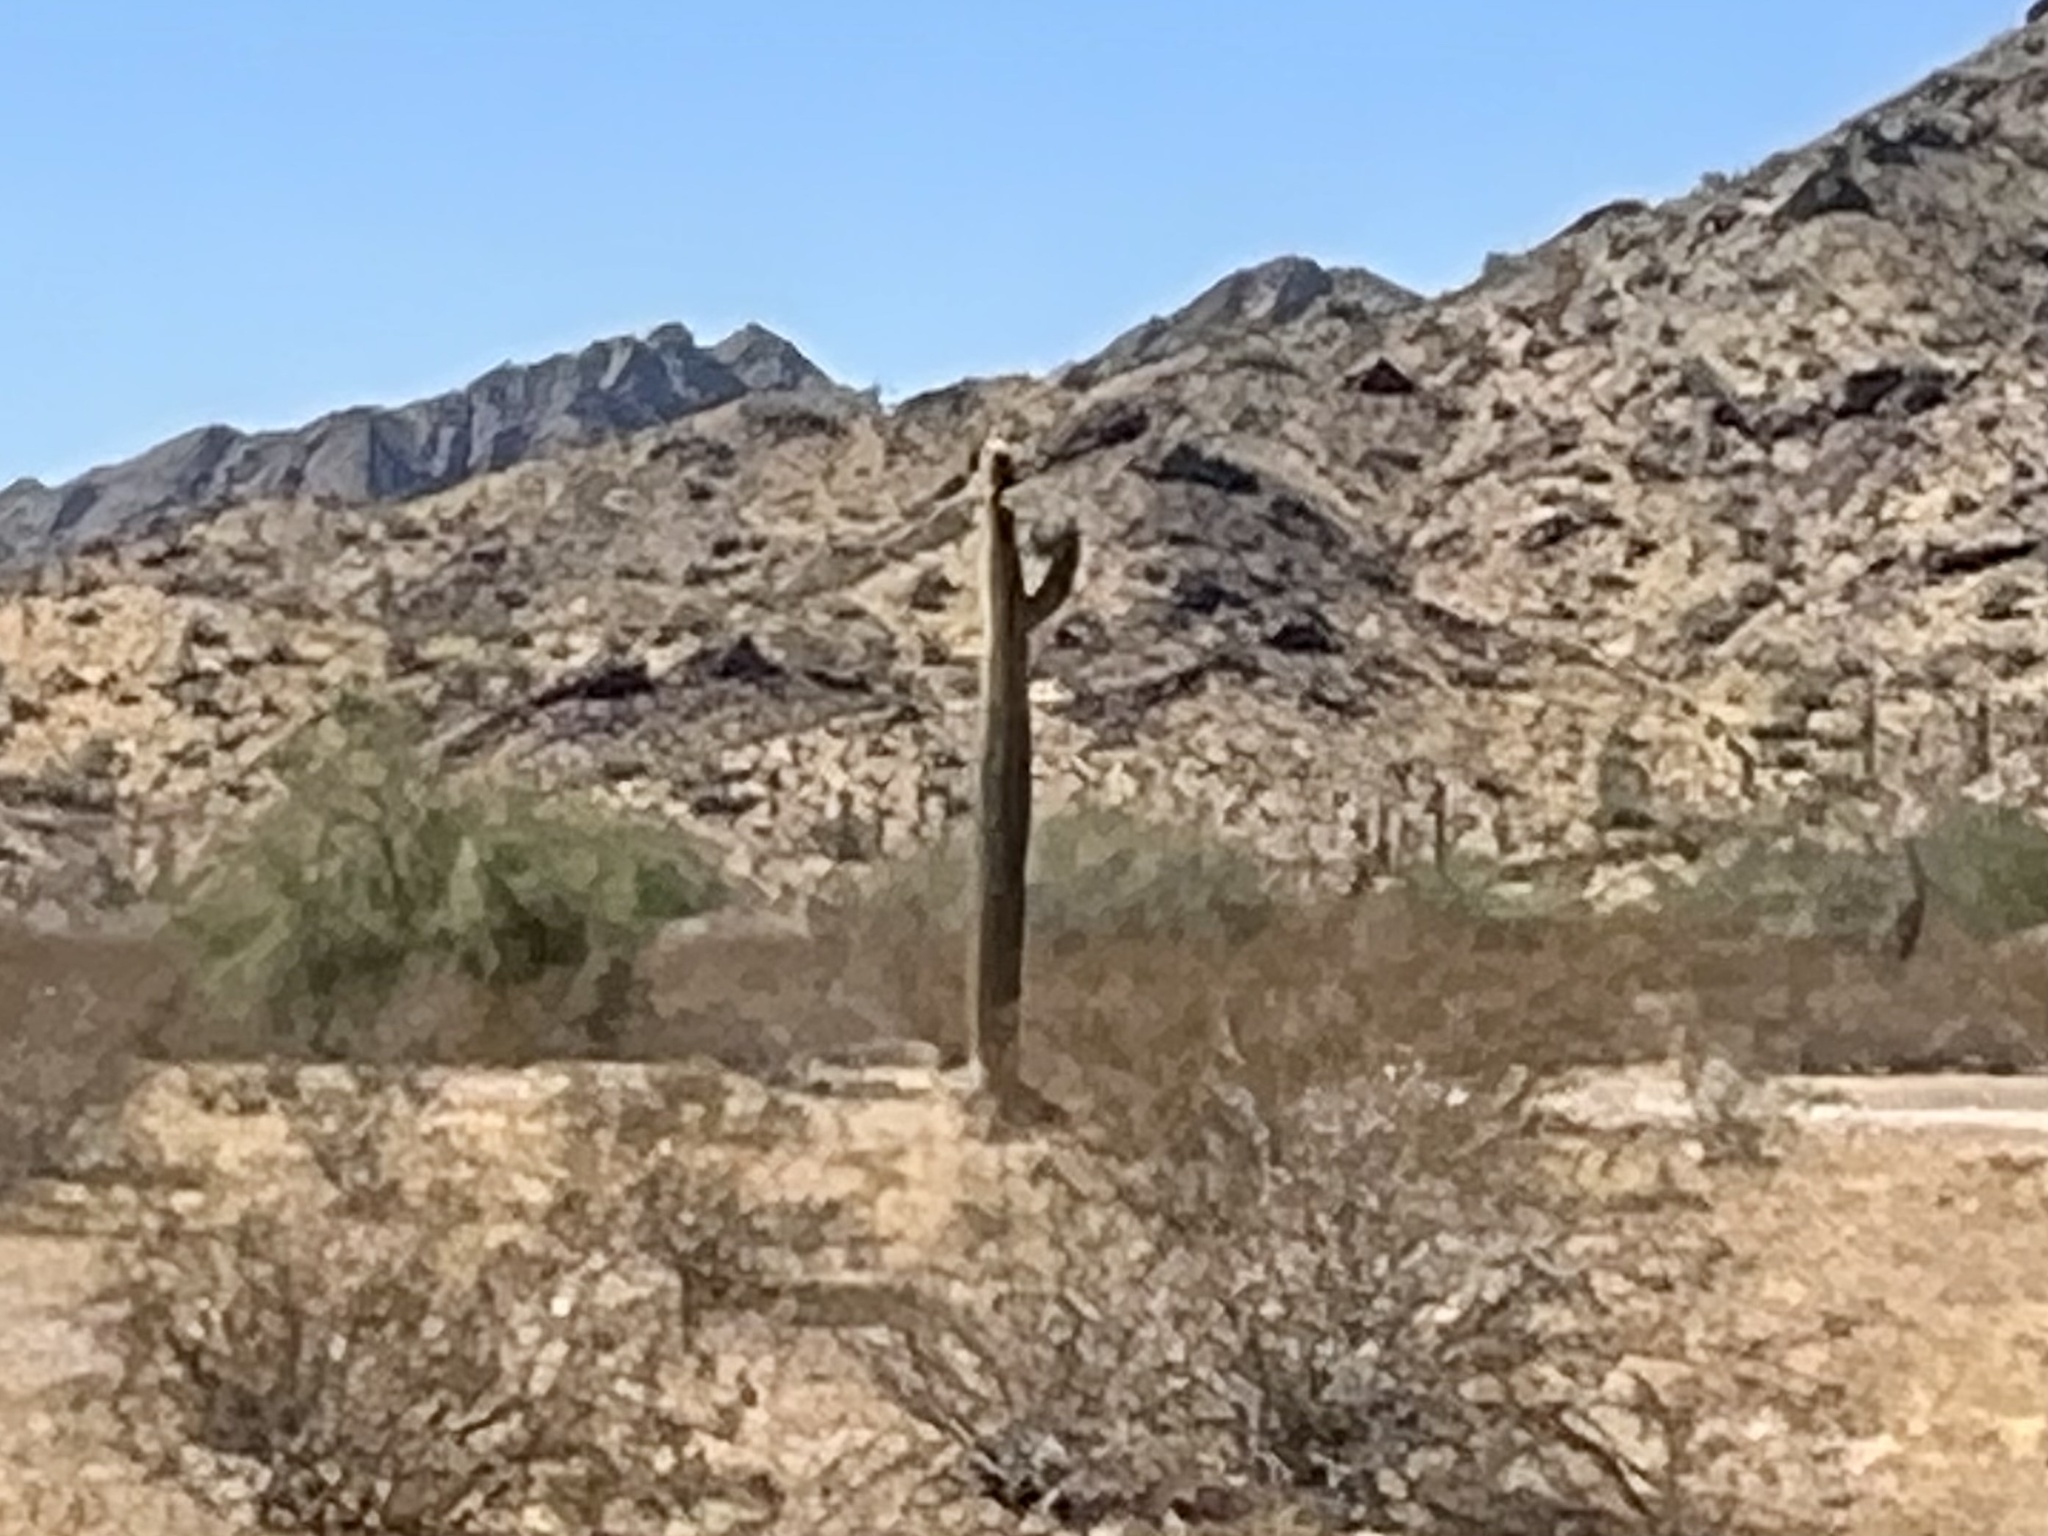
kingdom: Plantae
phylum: Tracheophyta
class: Magnoliopsida
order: Caryophyllales
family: Cactaceae
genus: Carnegiea
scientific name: Carnegiea gigantea
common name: Saguaro
